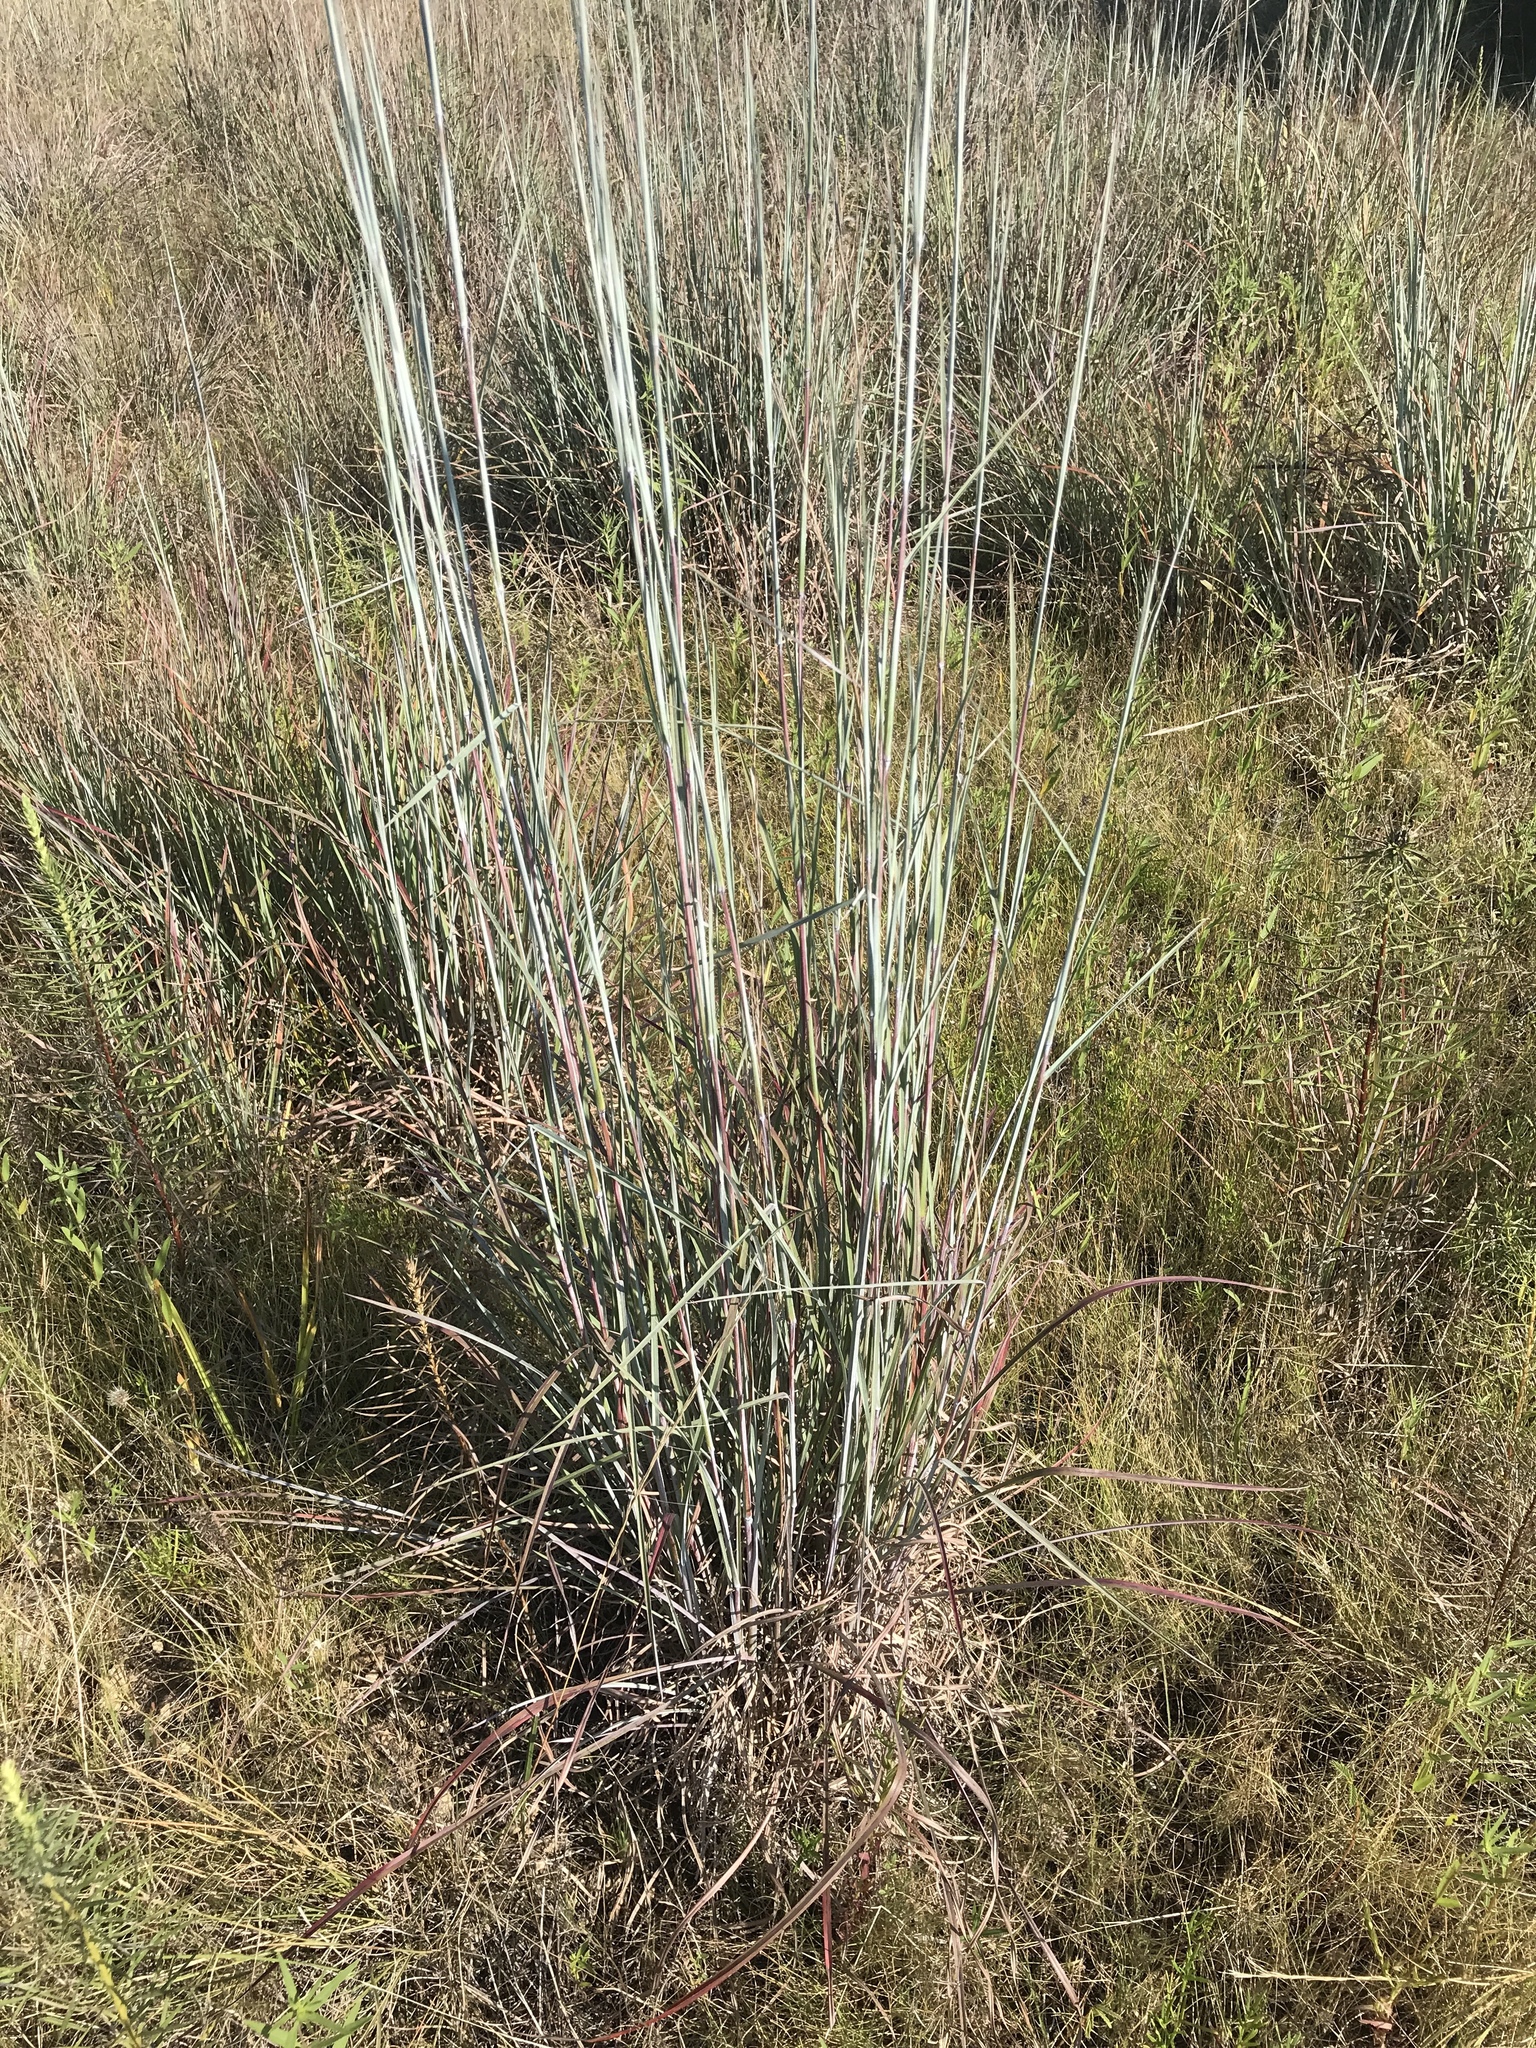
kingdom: Plantae
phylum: Tracheophyta
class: Liliopsida
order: Poales
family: Poaceae
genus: Schizachyrium
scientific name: Schizachyrium scoparium
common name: Little bluestem
